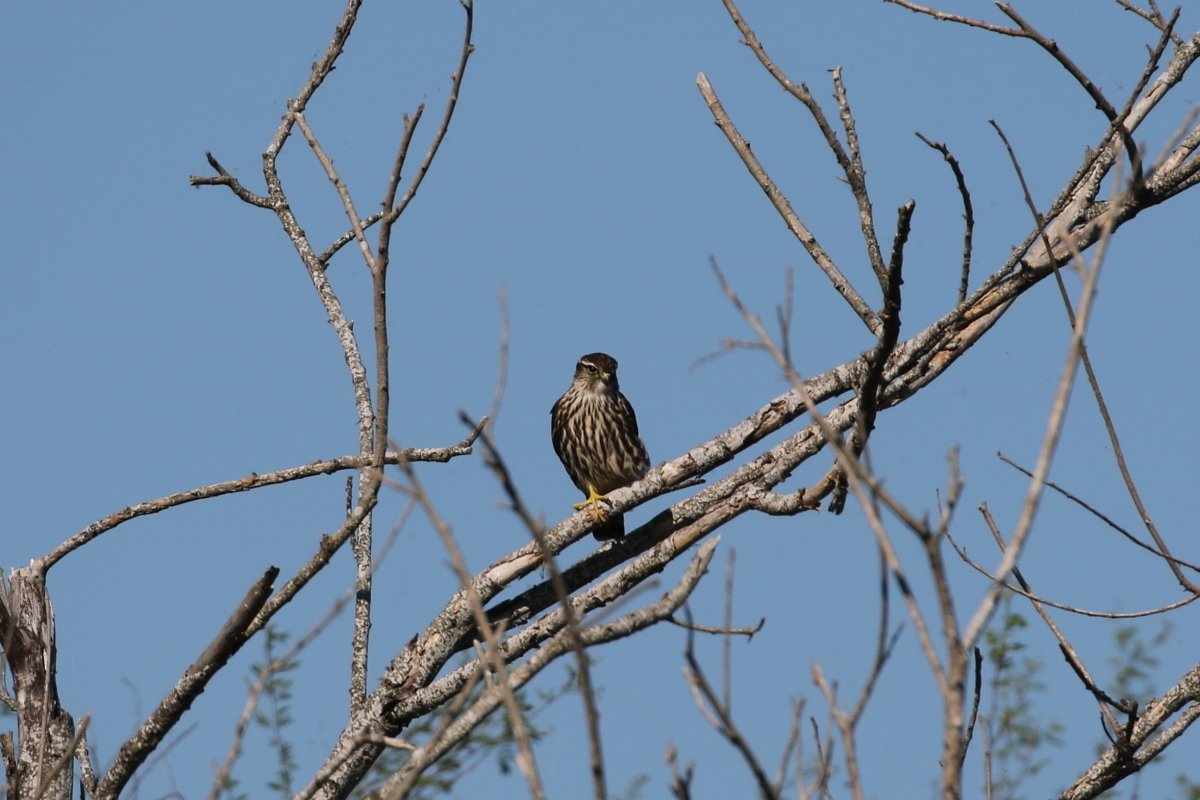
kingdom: Animalia
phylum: Chordata
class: Aves
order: Falconiformes
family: Falconidae
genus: Falco
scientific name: Falco columbarius
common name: Merlin
